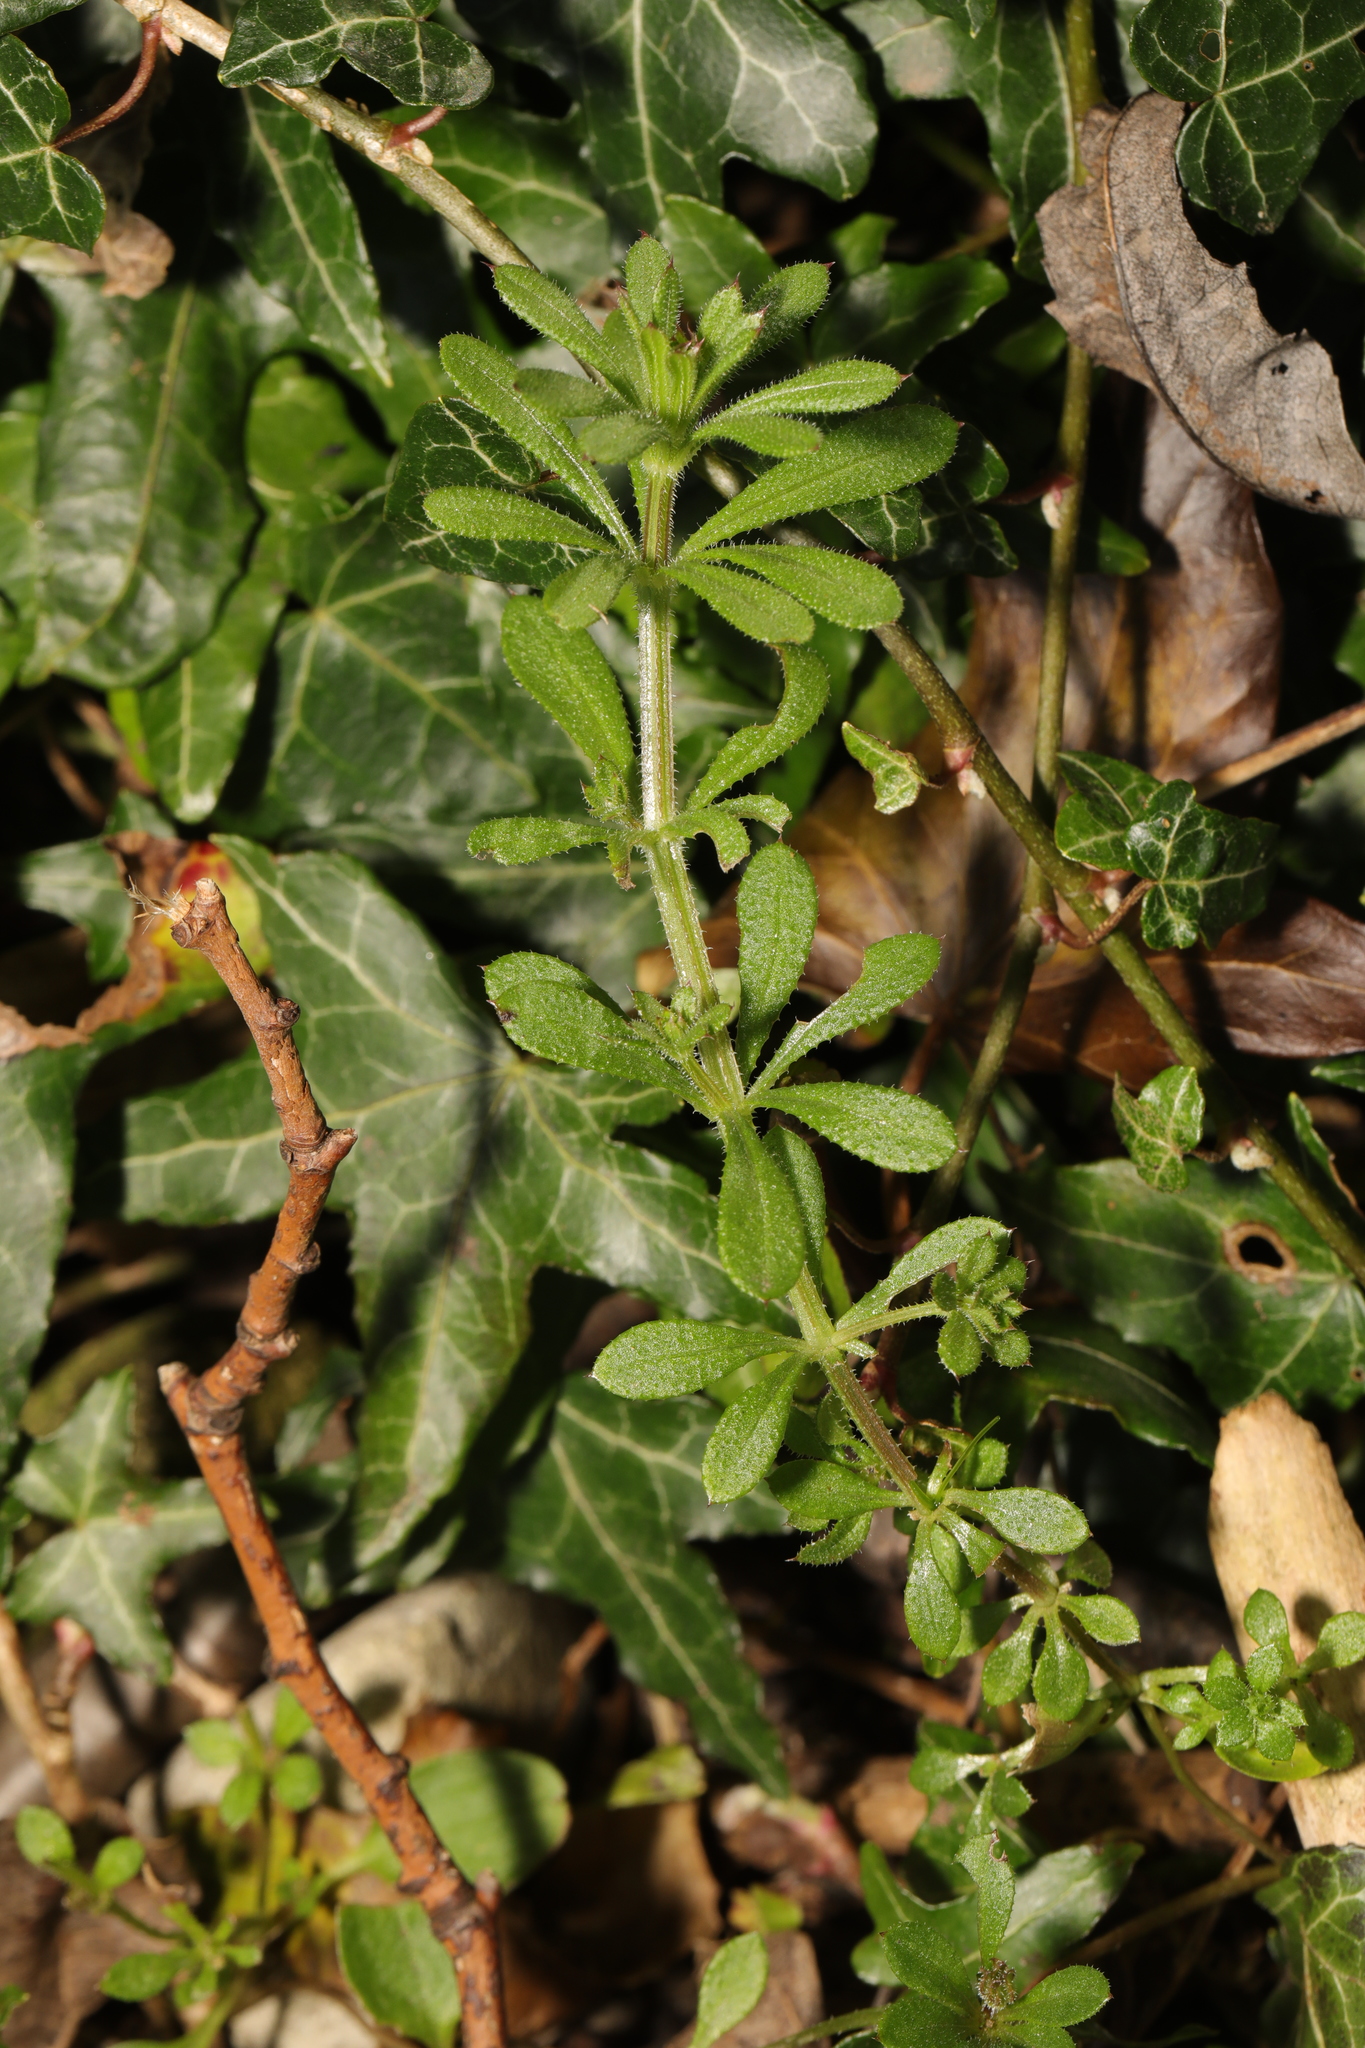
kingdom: Plantae
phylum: Tracheophyta
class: Magnoliopsida
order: Gentianales
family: Rubiaceae
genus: Galium
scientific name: Galium aparine
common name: Cleavers
